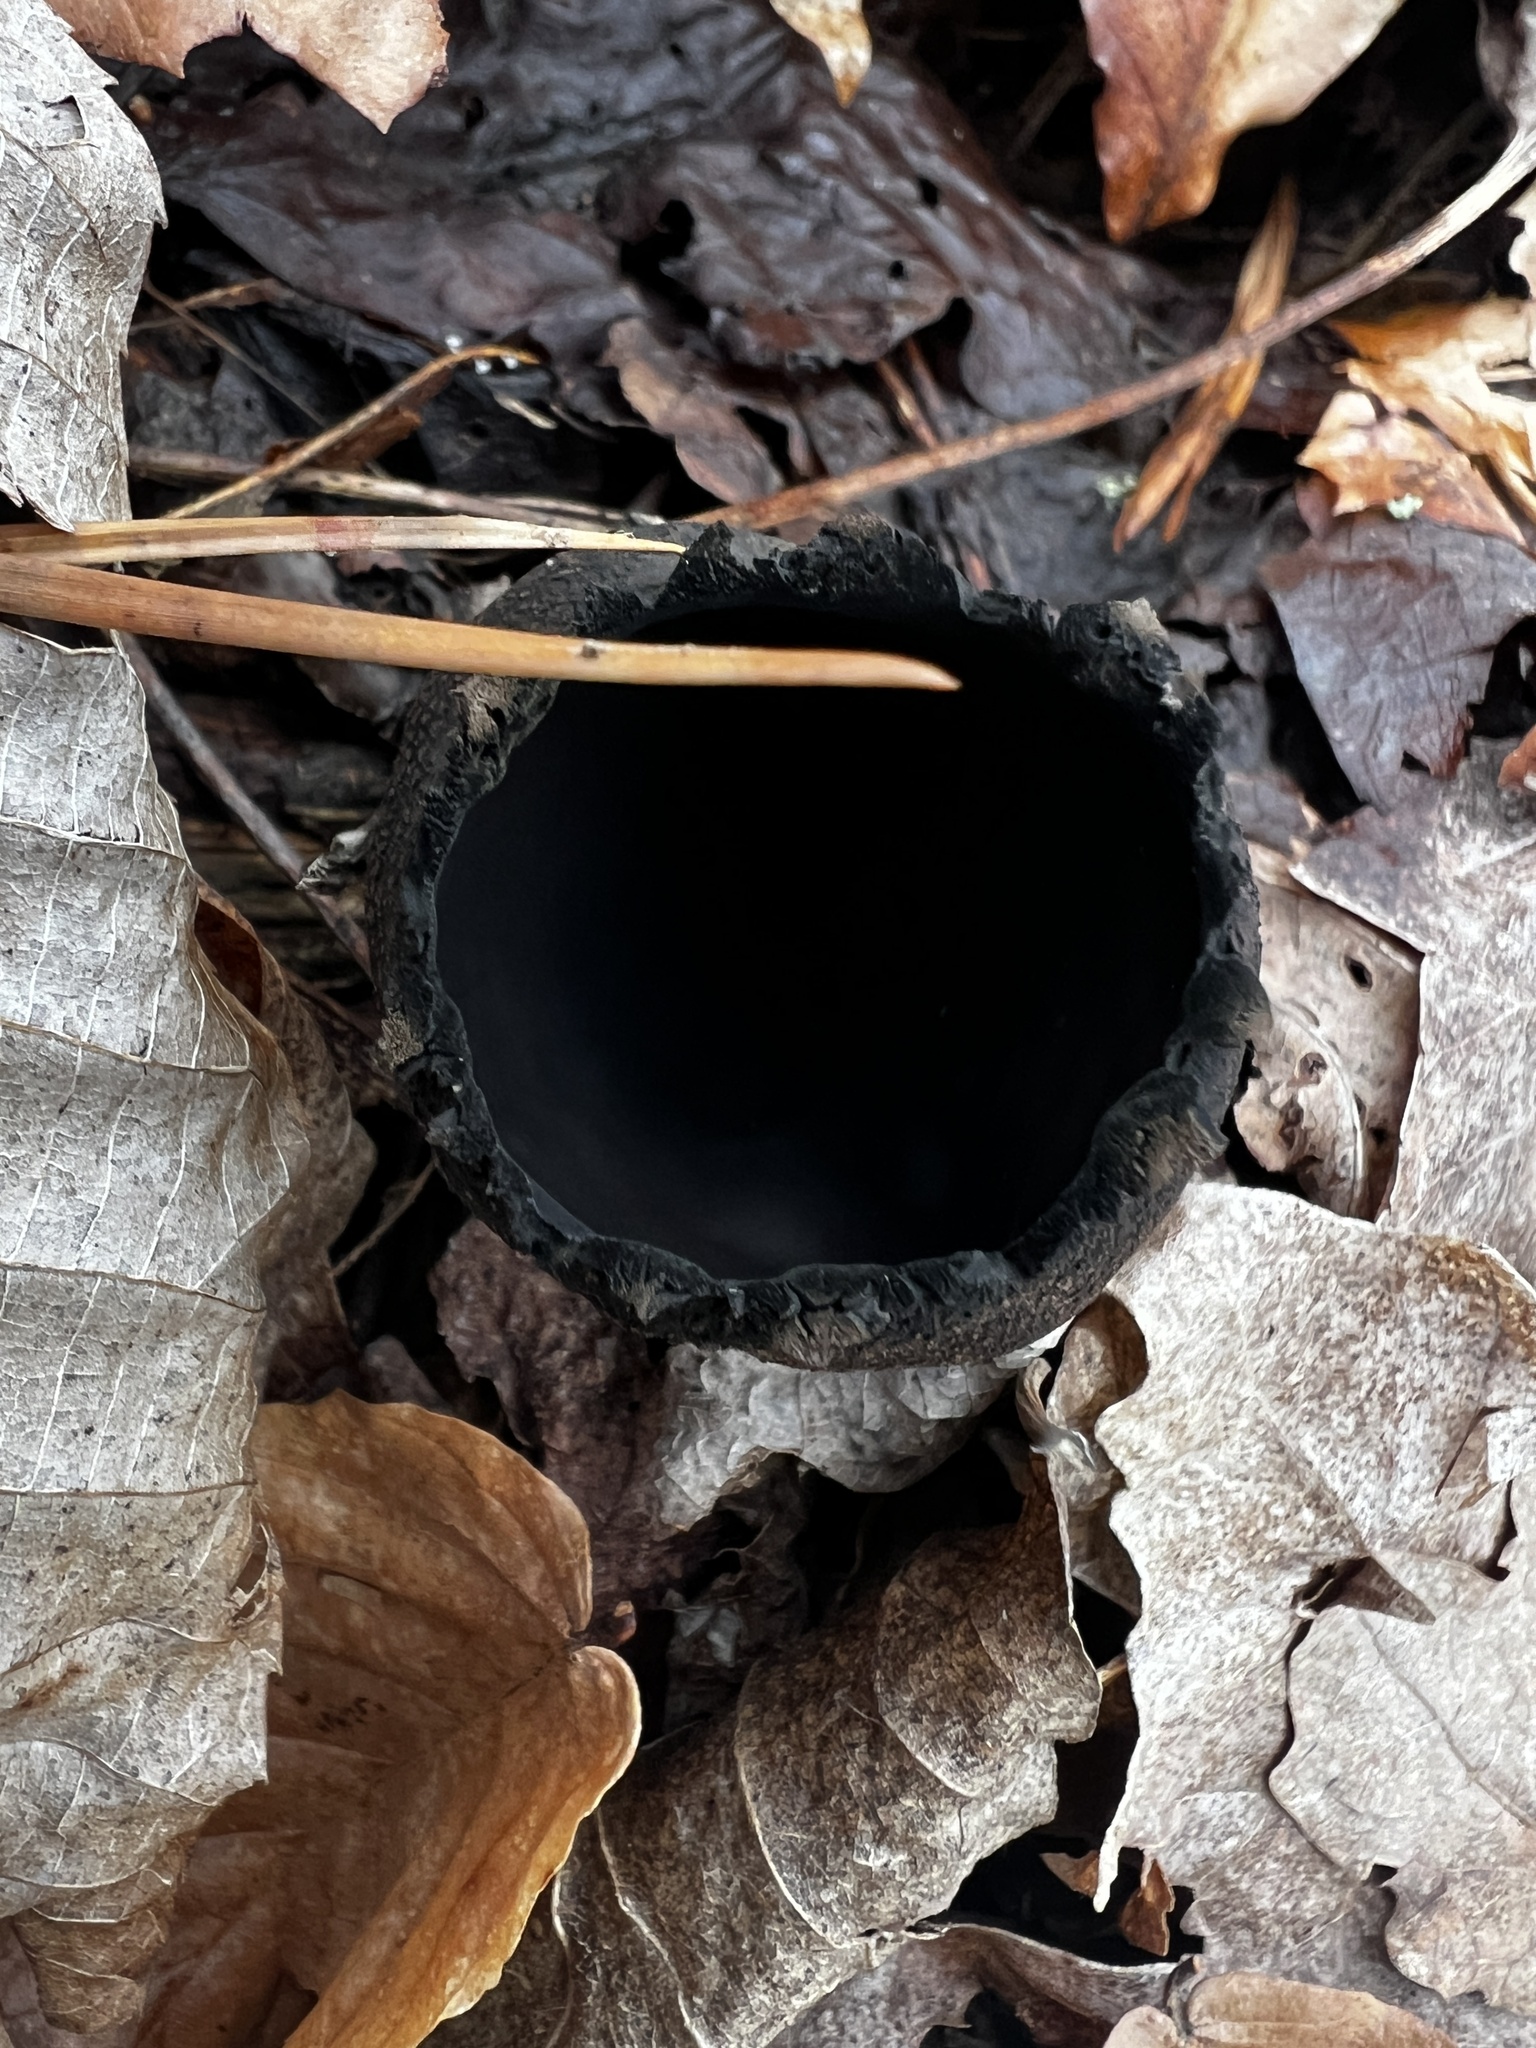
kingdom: Fungi
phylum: Ascomycota
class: Pezizomycetes
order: Pezizales
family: Sarcosomataceae
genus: Urnula
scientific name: Urnula craterium
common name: Devil's urn
